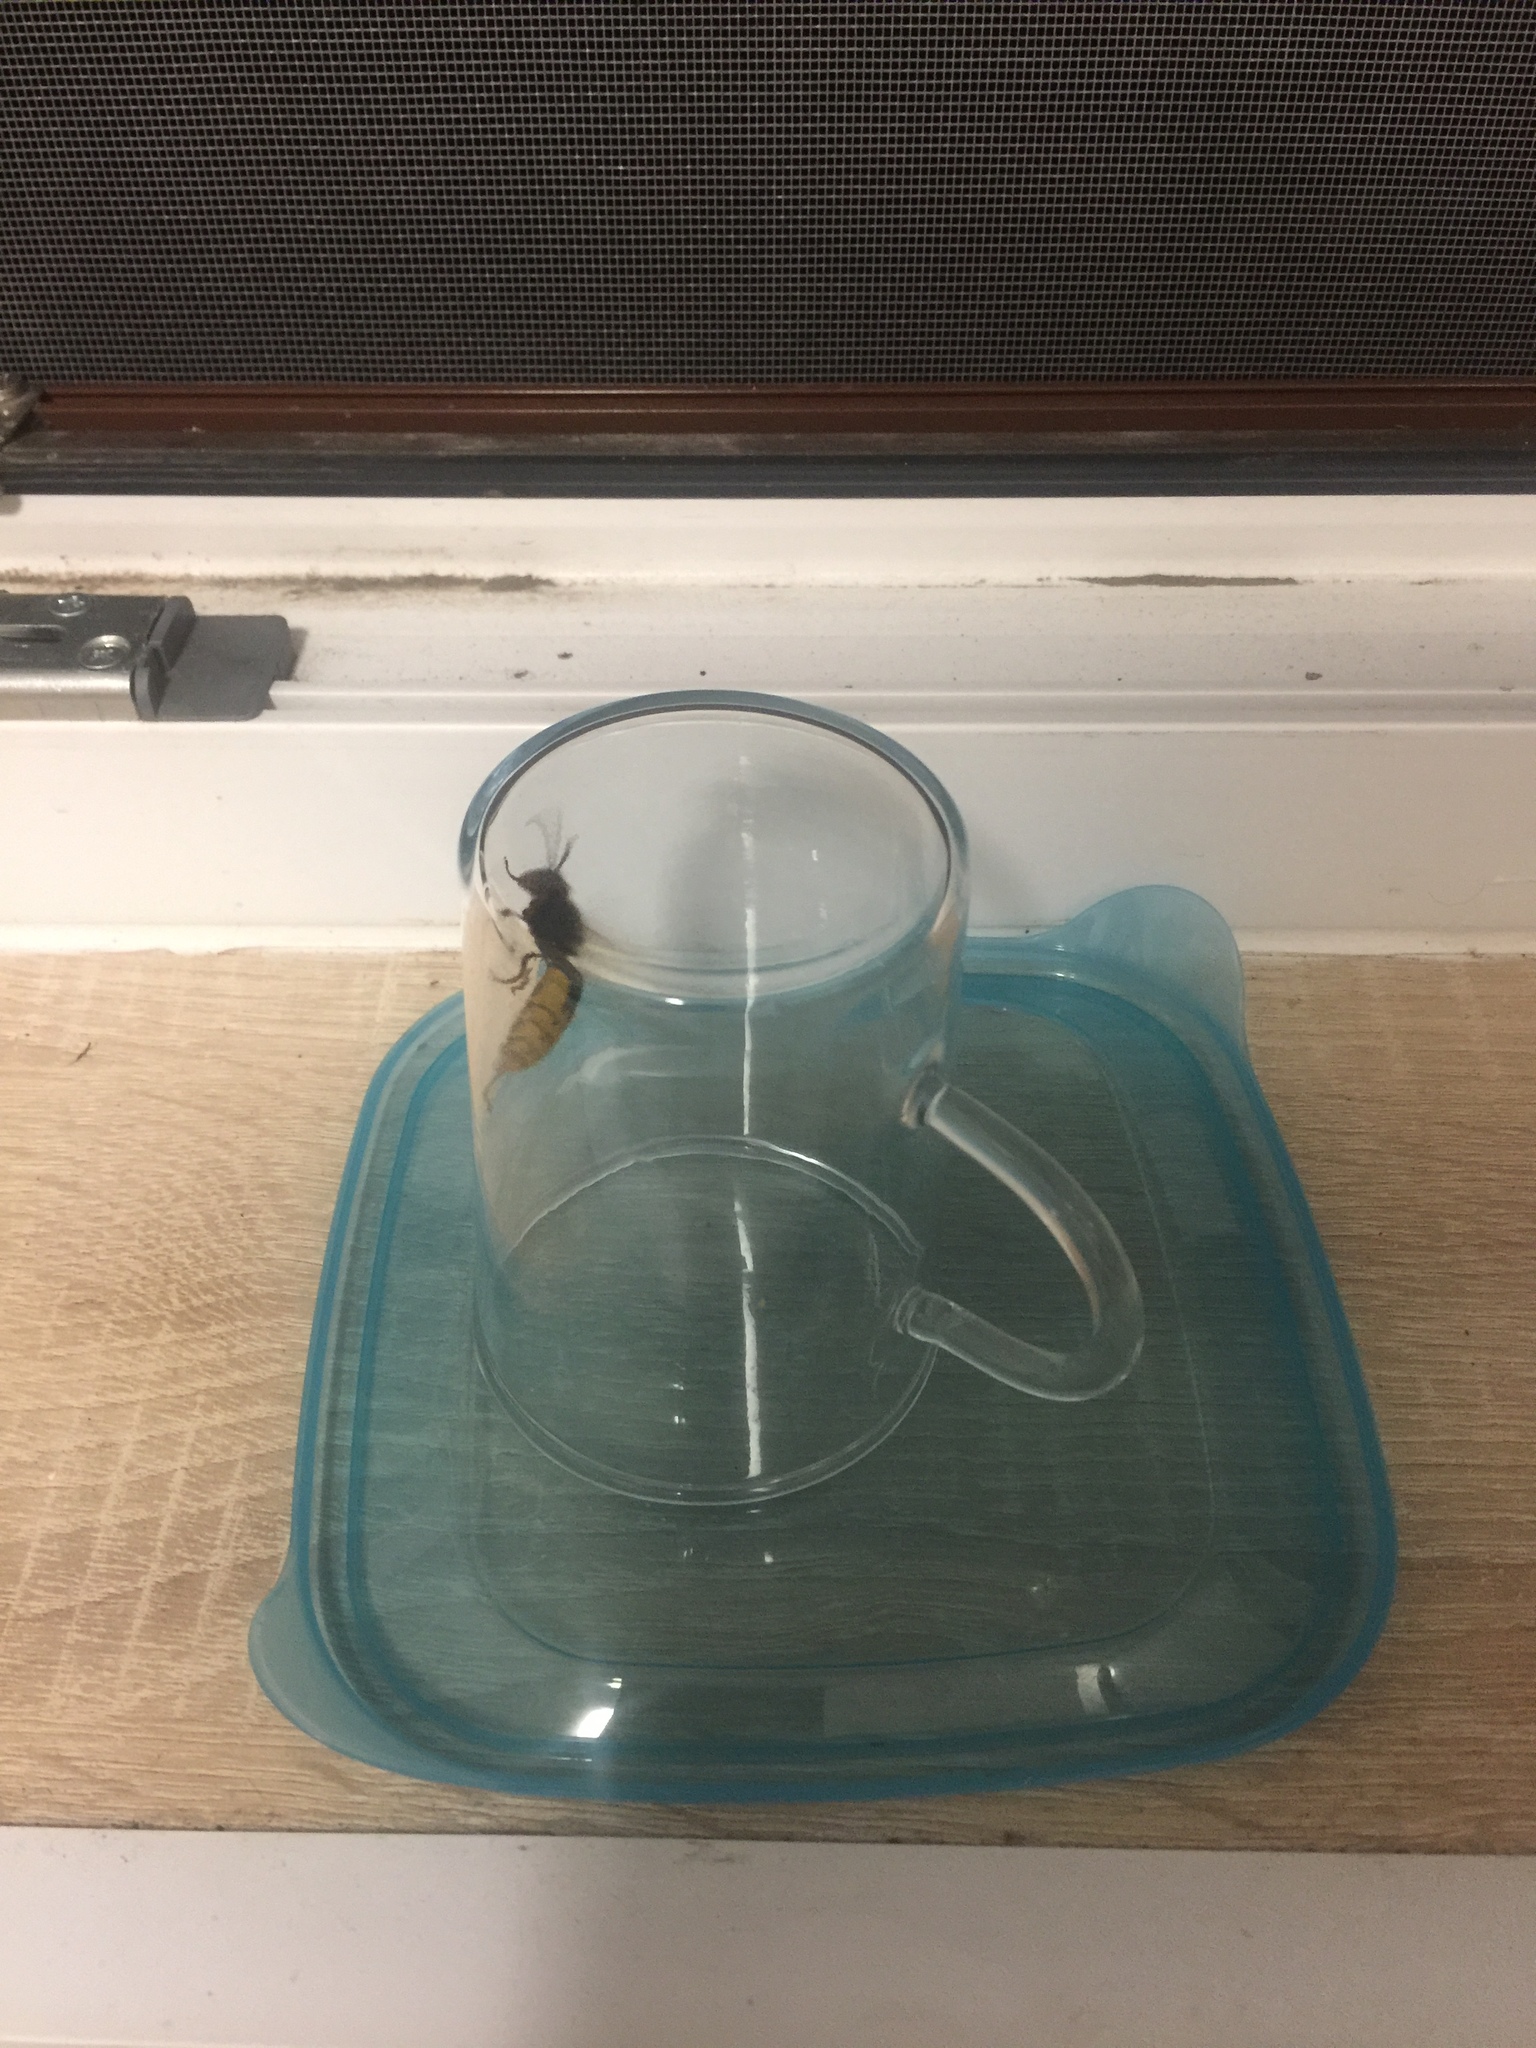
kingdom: Animalia
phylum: Arthropoda
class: Insecta
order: Hymenoptera
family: Vespidae
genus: Vespa
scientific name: Vespa crabro
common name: Hornet
